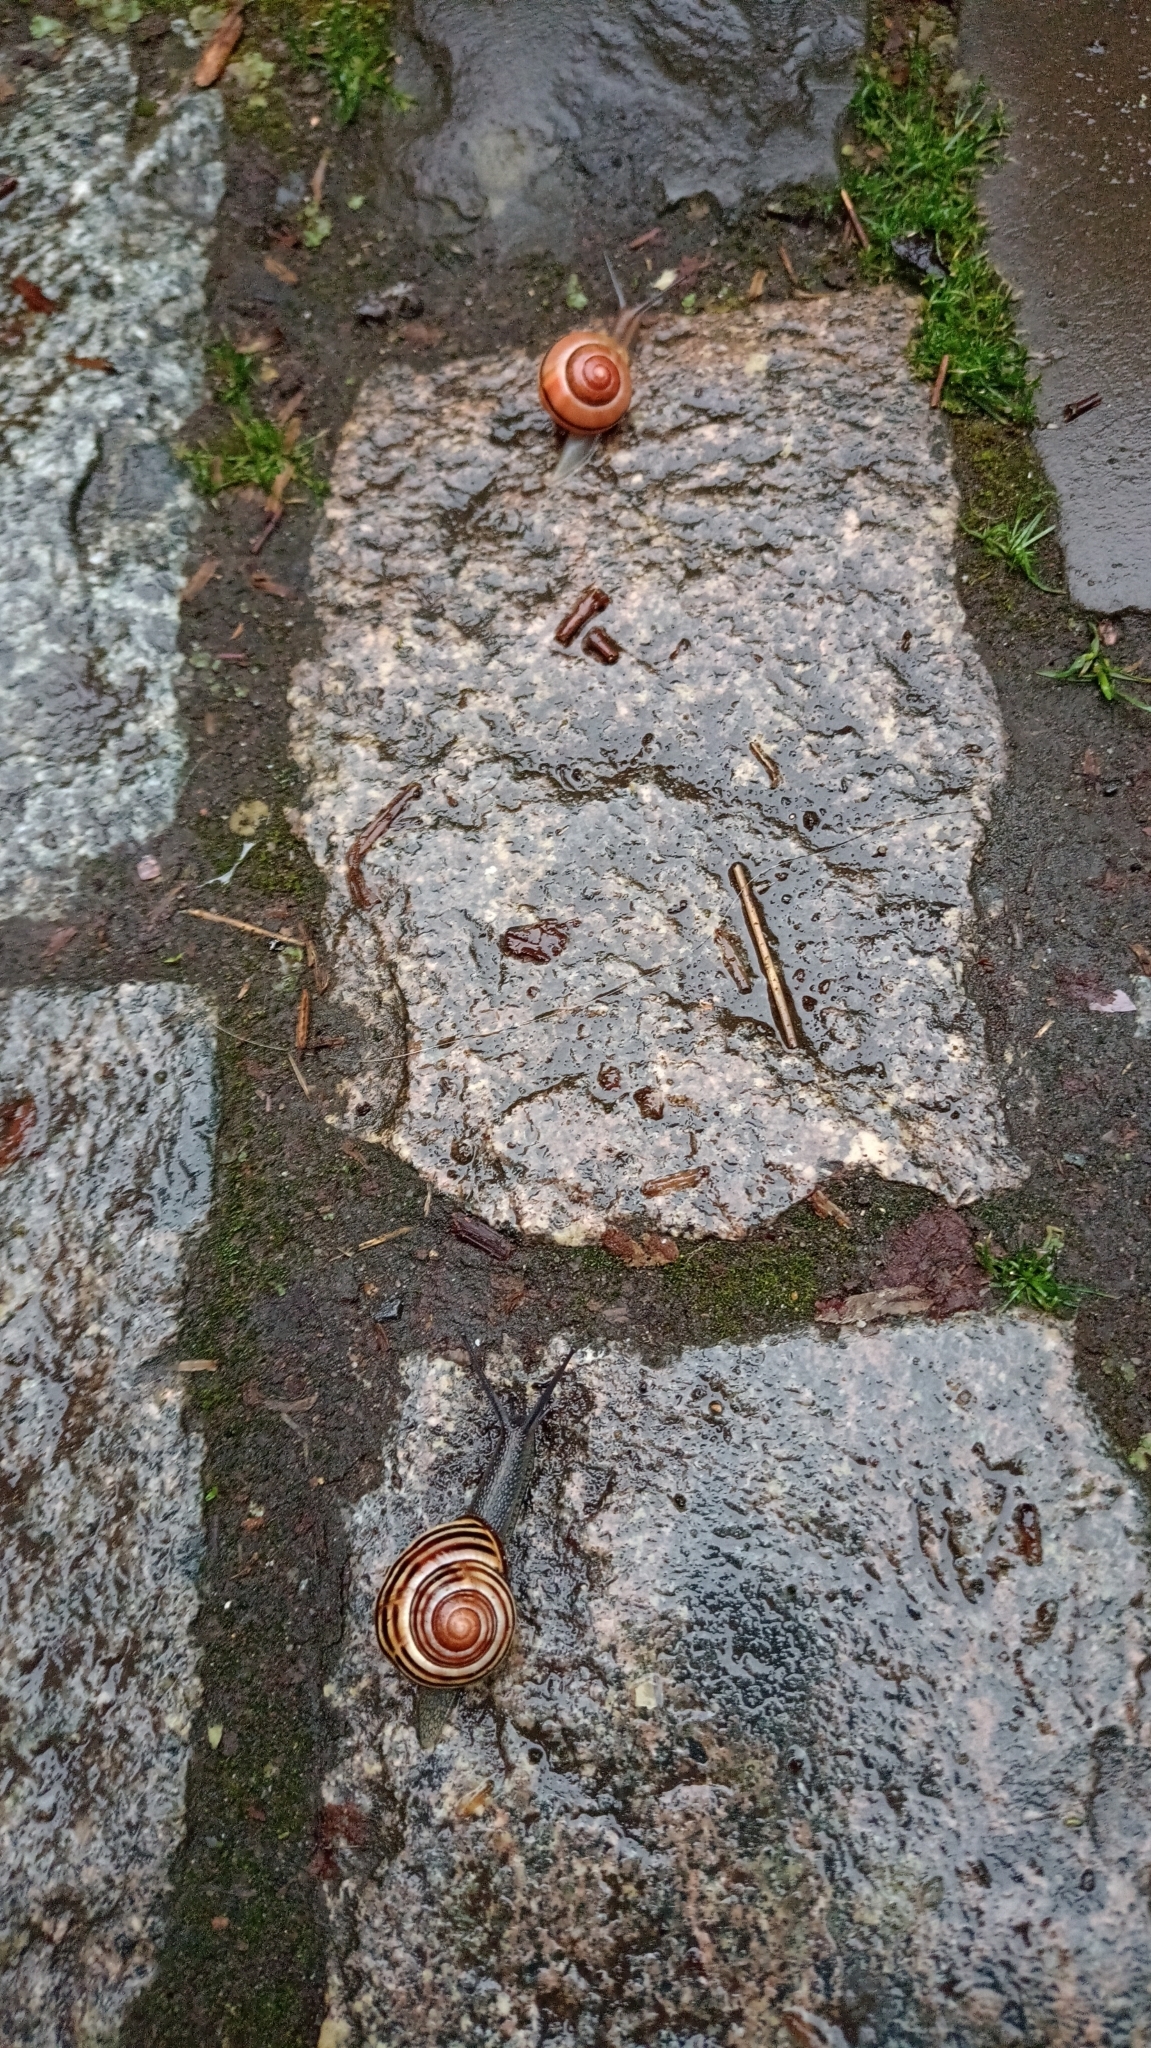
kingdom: Animalia
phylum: Mollusca
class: Gastropoda
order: Stylommatophora
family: Helicidae
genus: Cepaea
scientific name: Cepaea nemoralis
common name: Grovesnail
